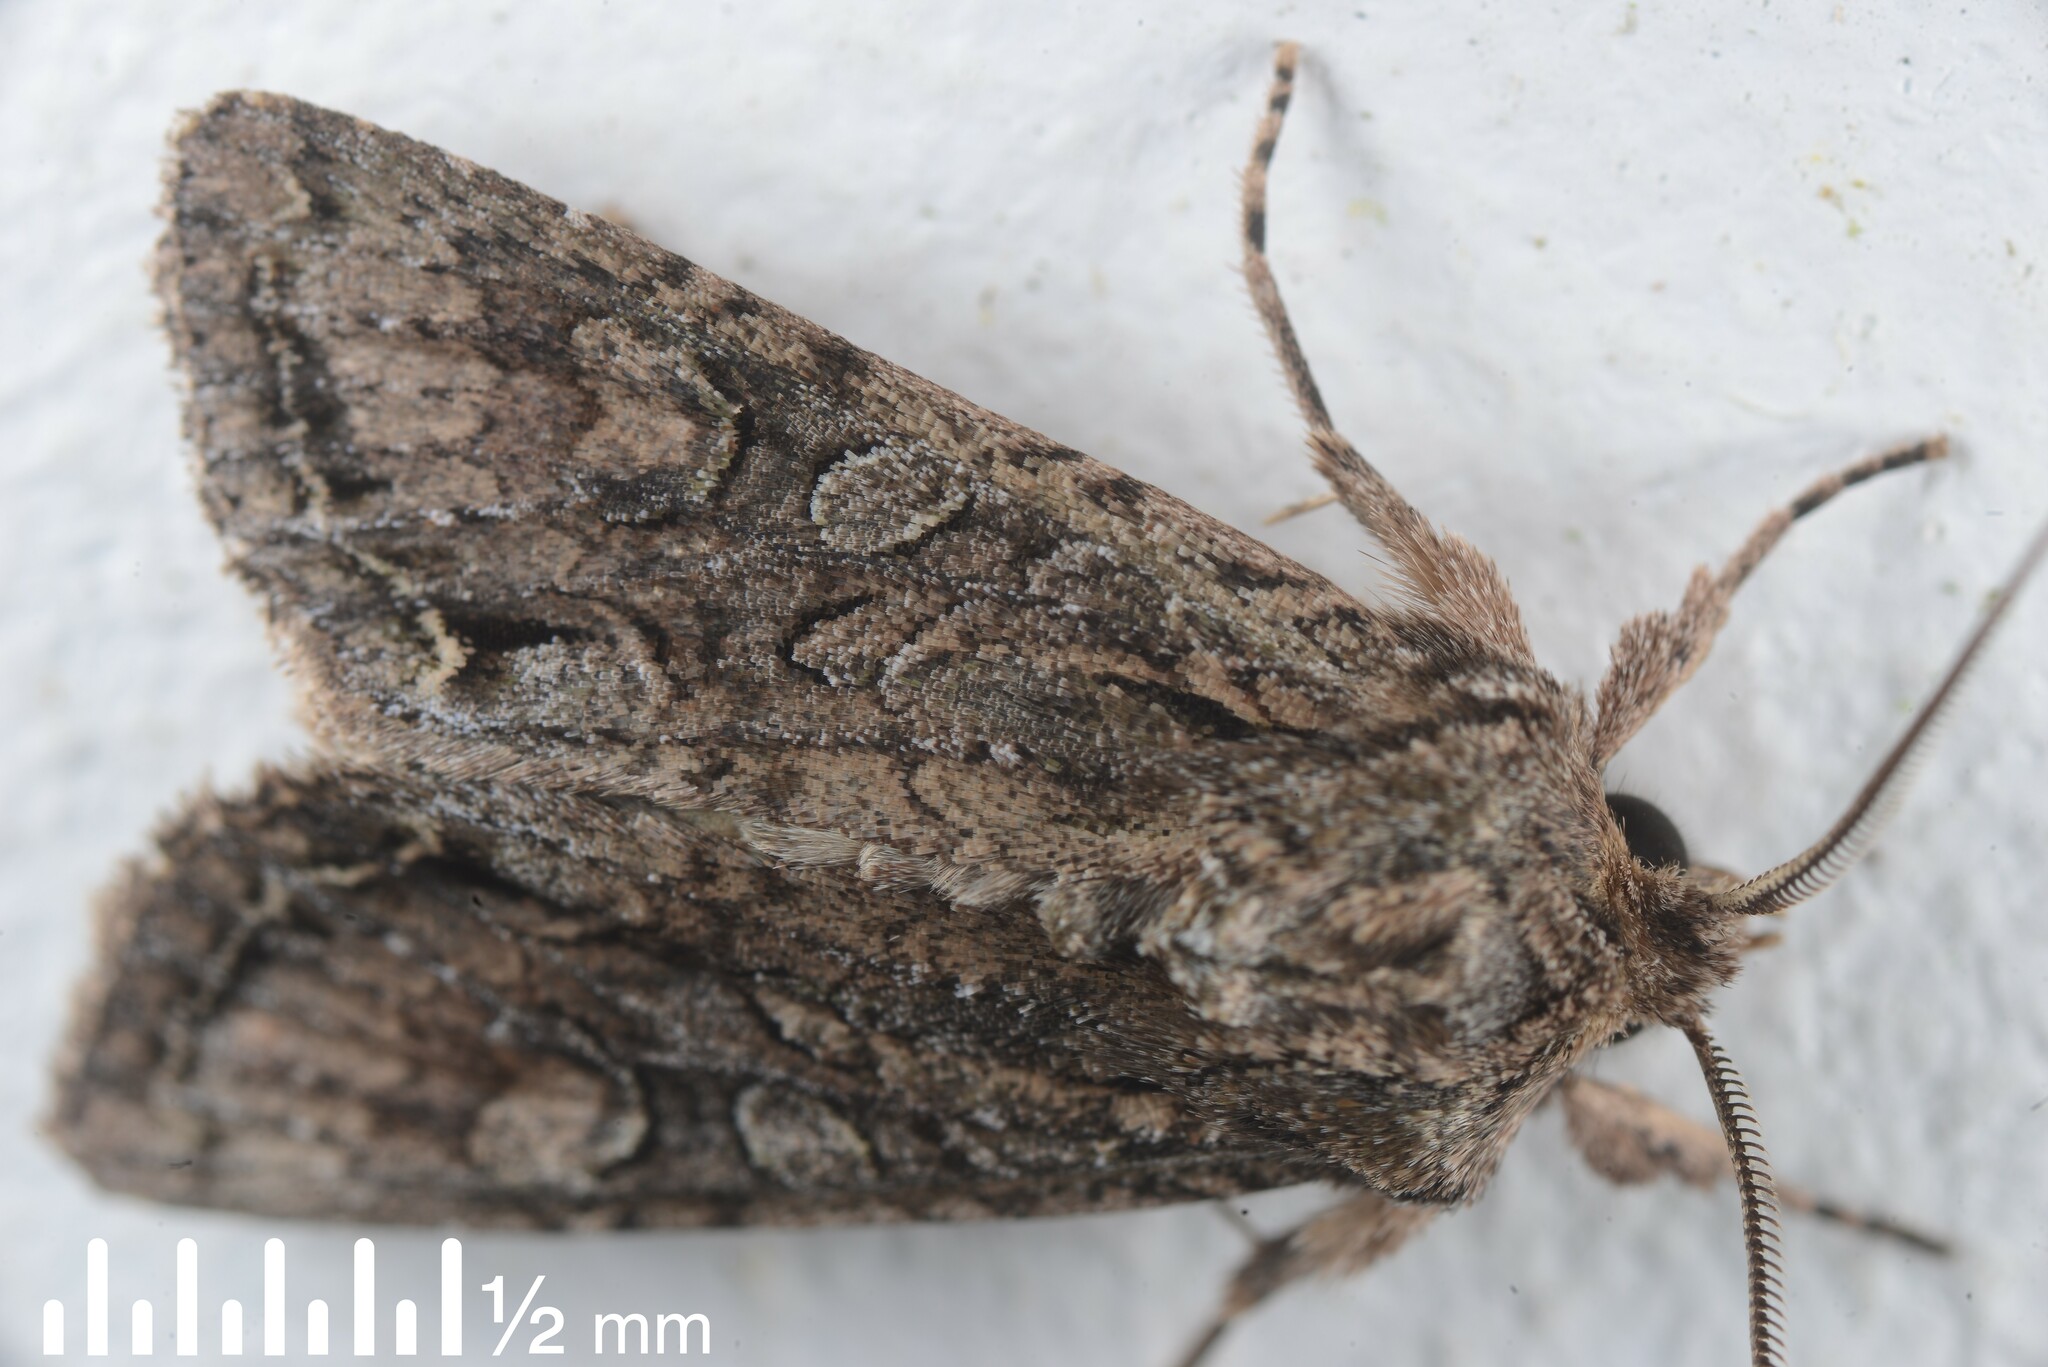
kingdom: Animalia
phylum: Arthropoda
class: Insecta
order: Lepidoptera
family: Noctuidae
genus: Ichneutica
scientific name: Ichneutica mutans
